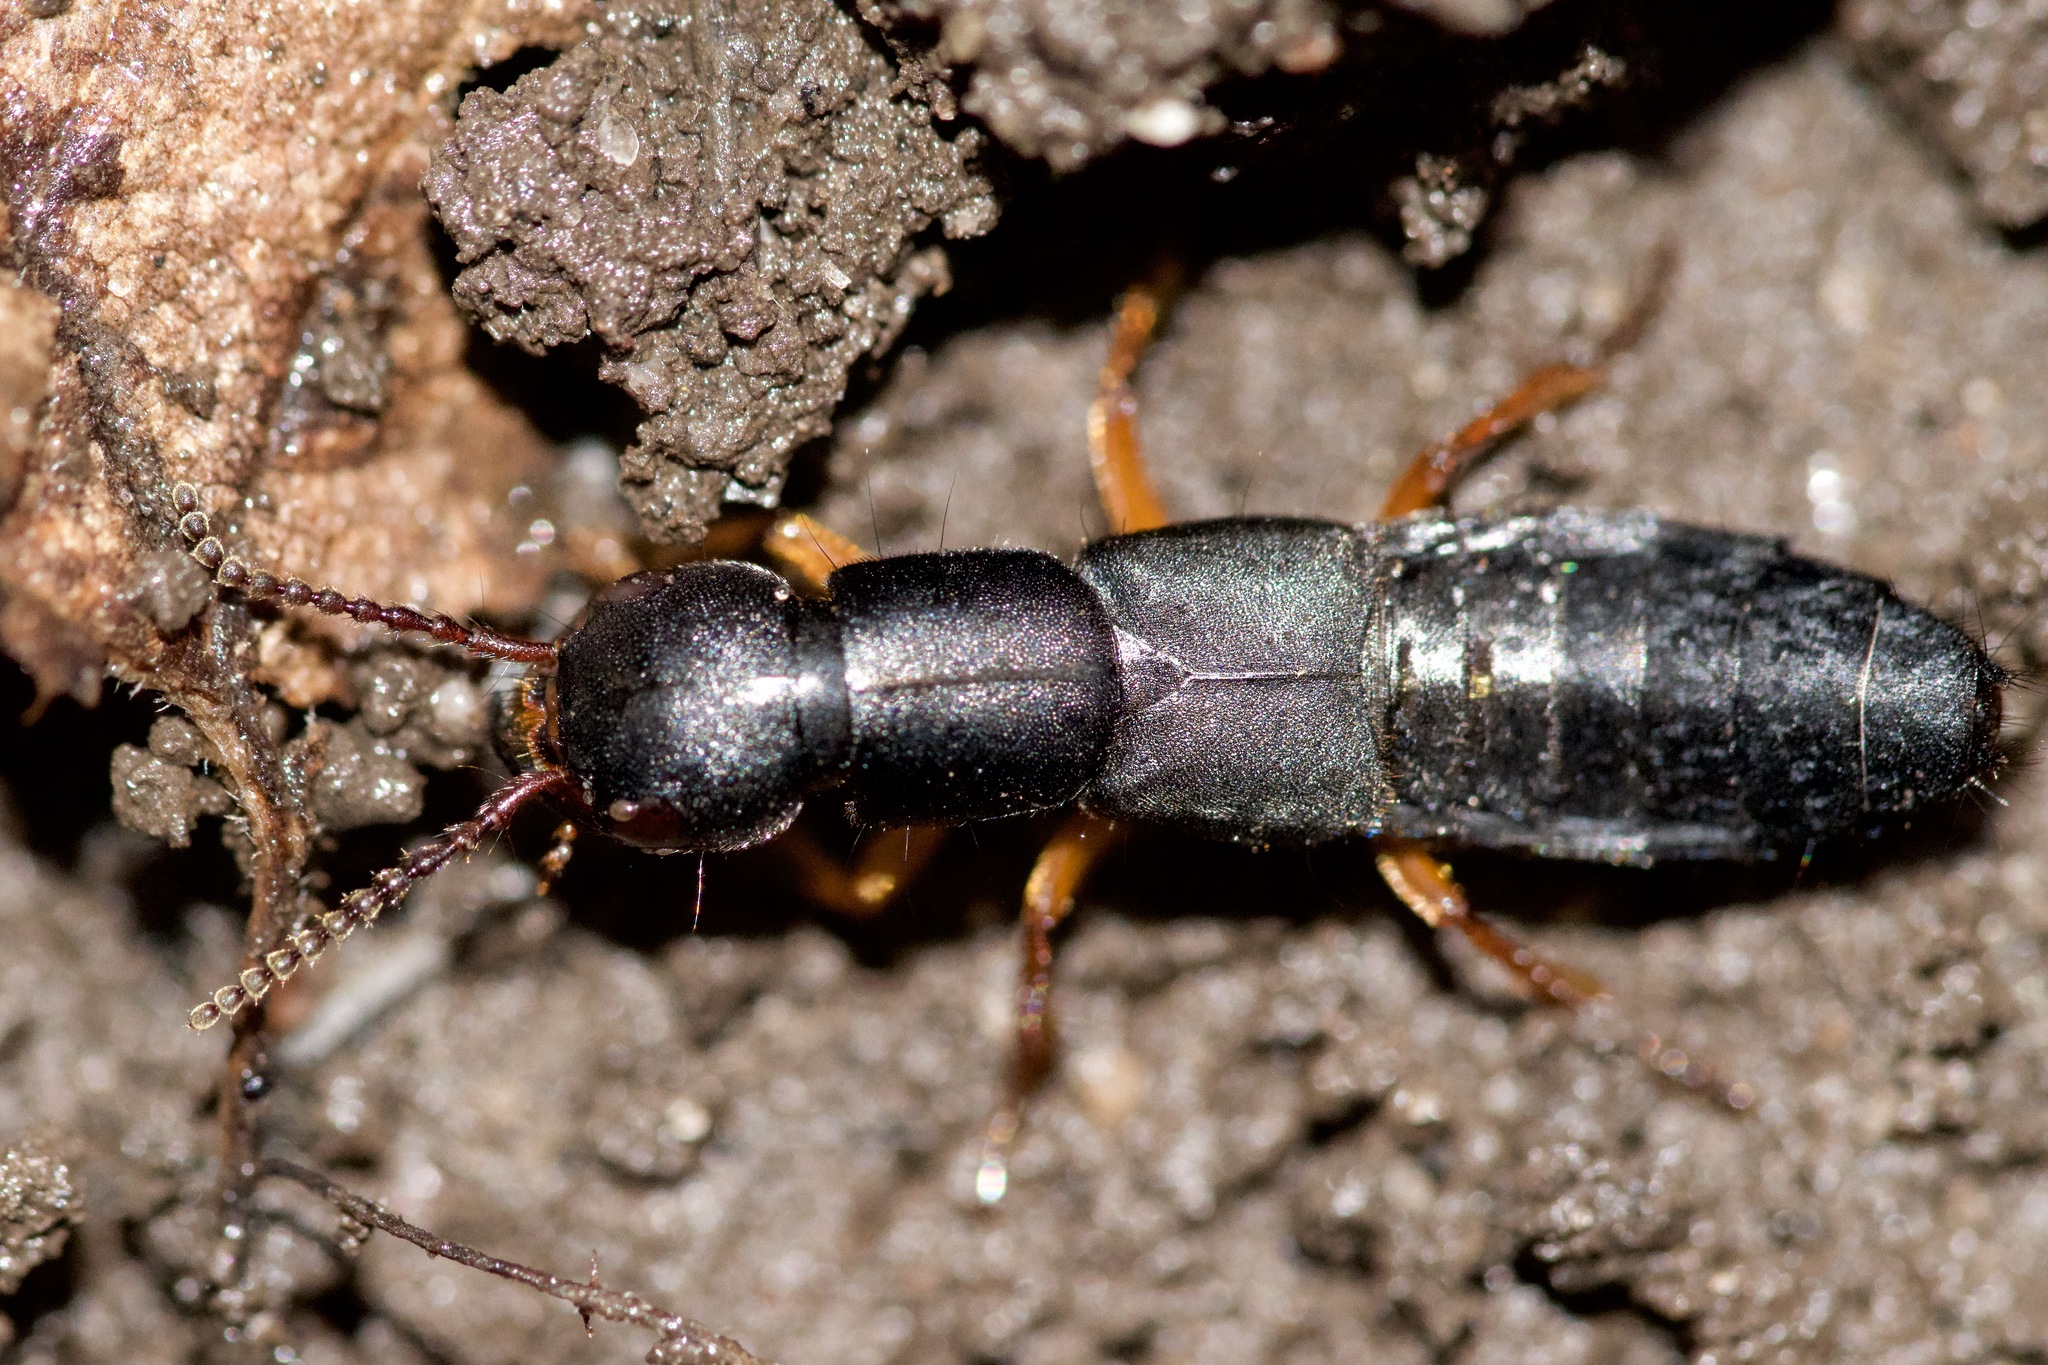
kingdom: Animalia
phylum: Arthropoda
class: Insecta
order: Coleoptera
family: Staphylinidae
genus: Dinothenarus
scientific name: Dinothenarus badipes
